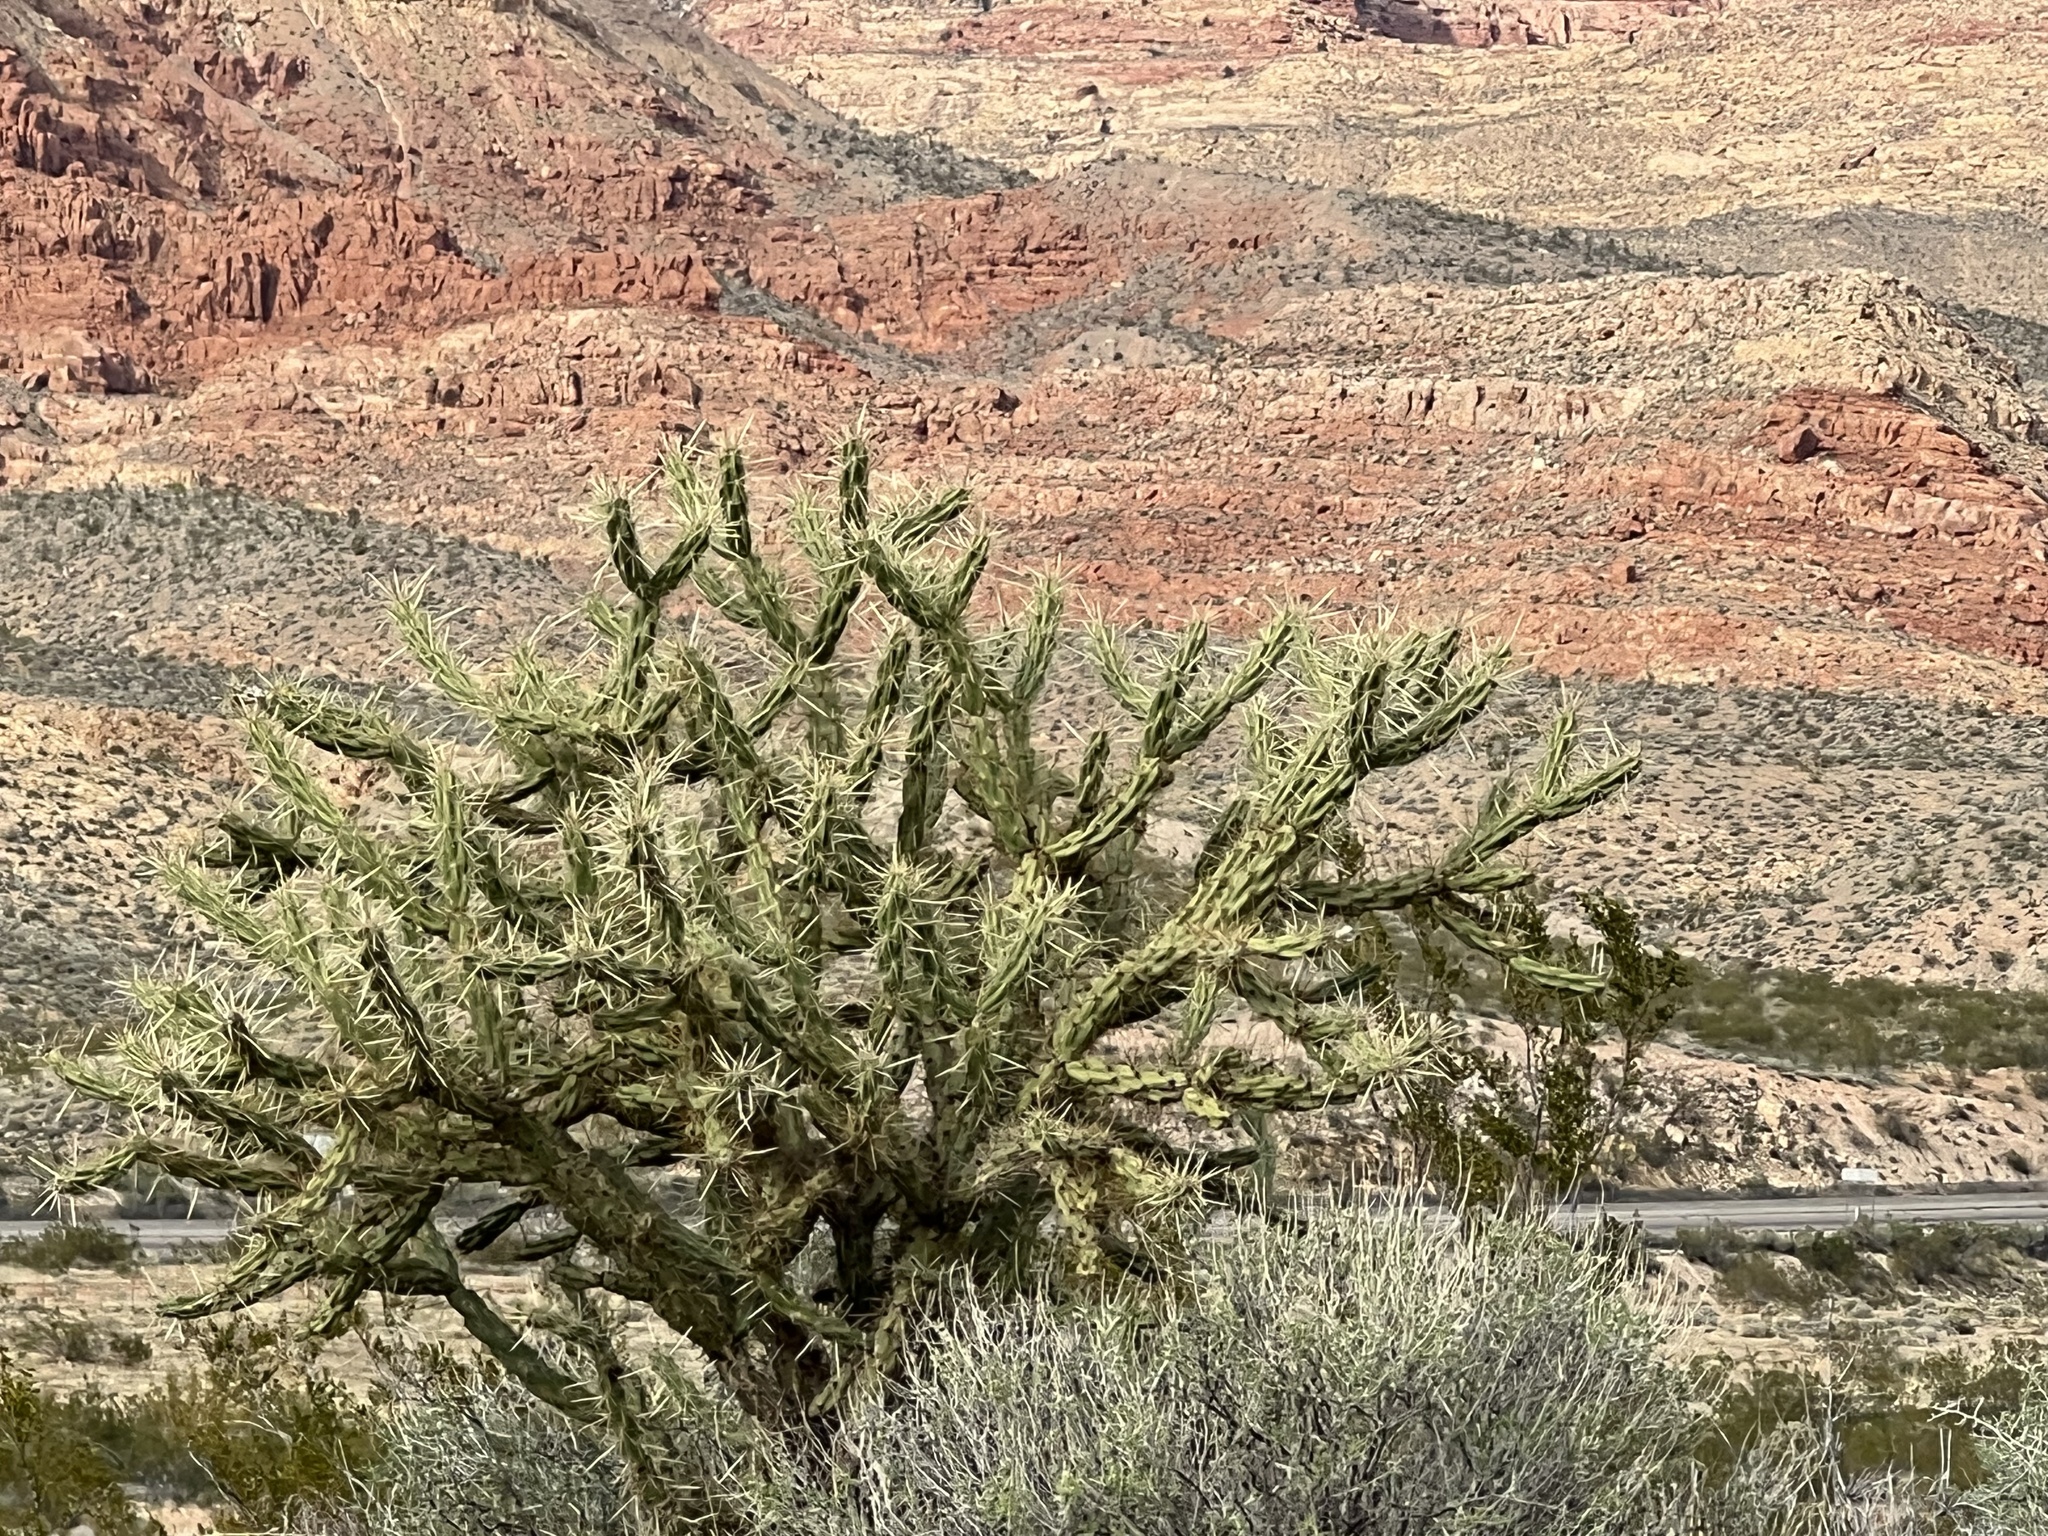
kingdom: Plantae
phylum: Tracheophyta
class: Magnoliopsida
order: Caryophyllales
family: Cactaceae
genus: Cylindropuntia
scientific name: Cylindropuntia acanthocarpa
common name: Buckhorn cholla
